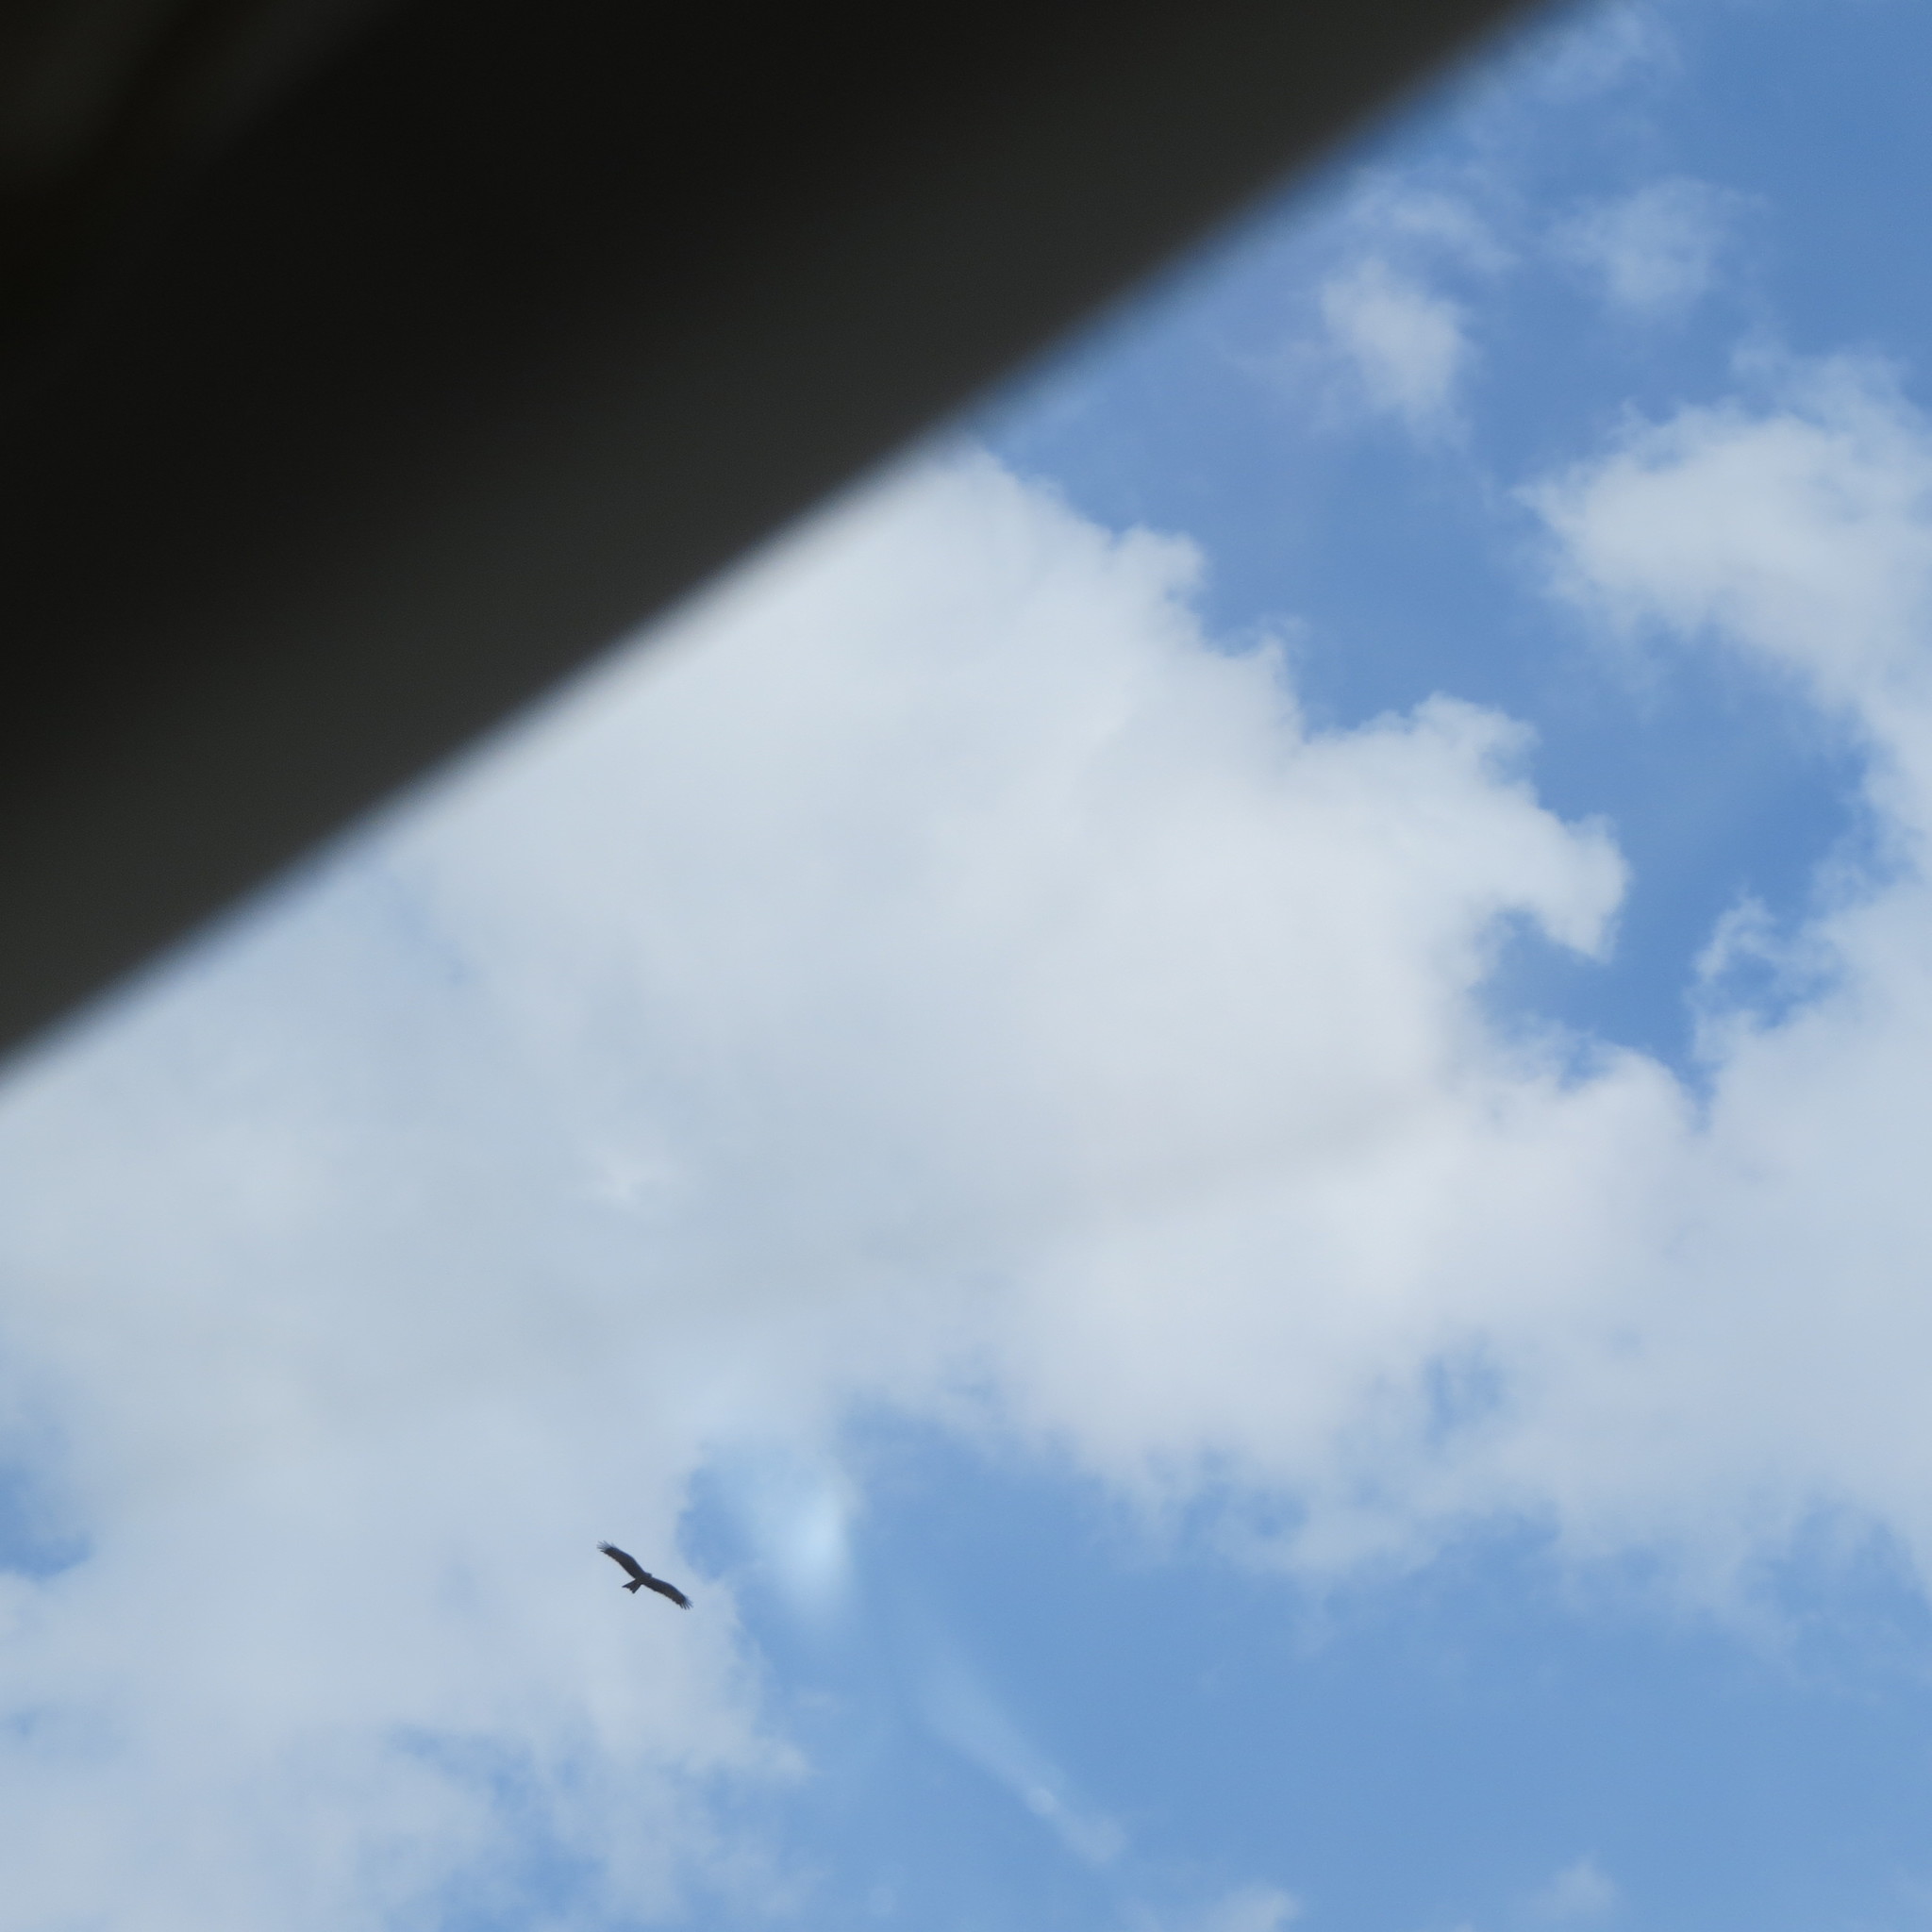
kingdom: Animalia
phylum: Chordata
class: Aves
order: Accipitriformes
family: Accipitridae
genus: Milvus
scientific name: Milvus migrans
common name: Black kite
